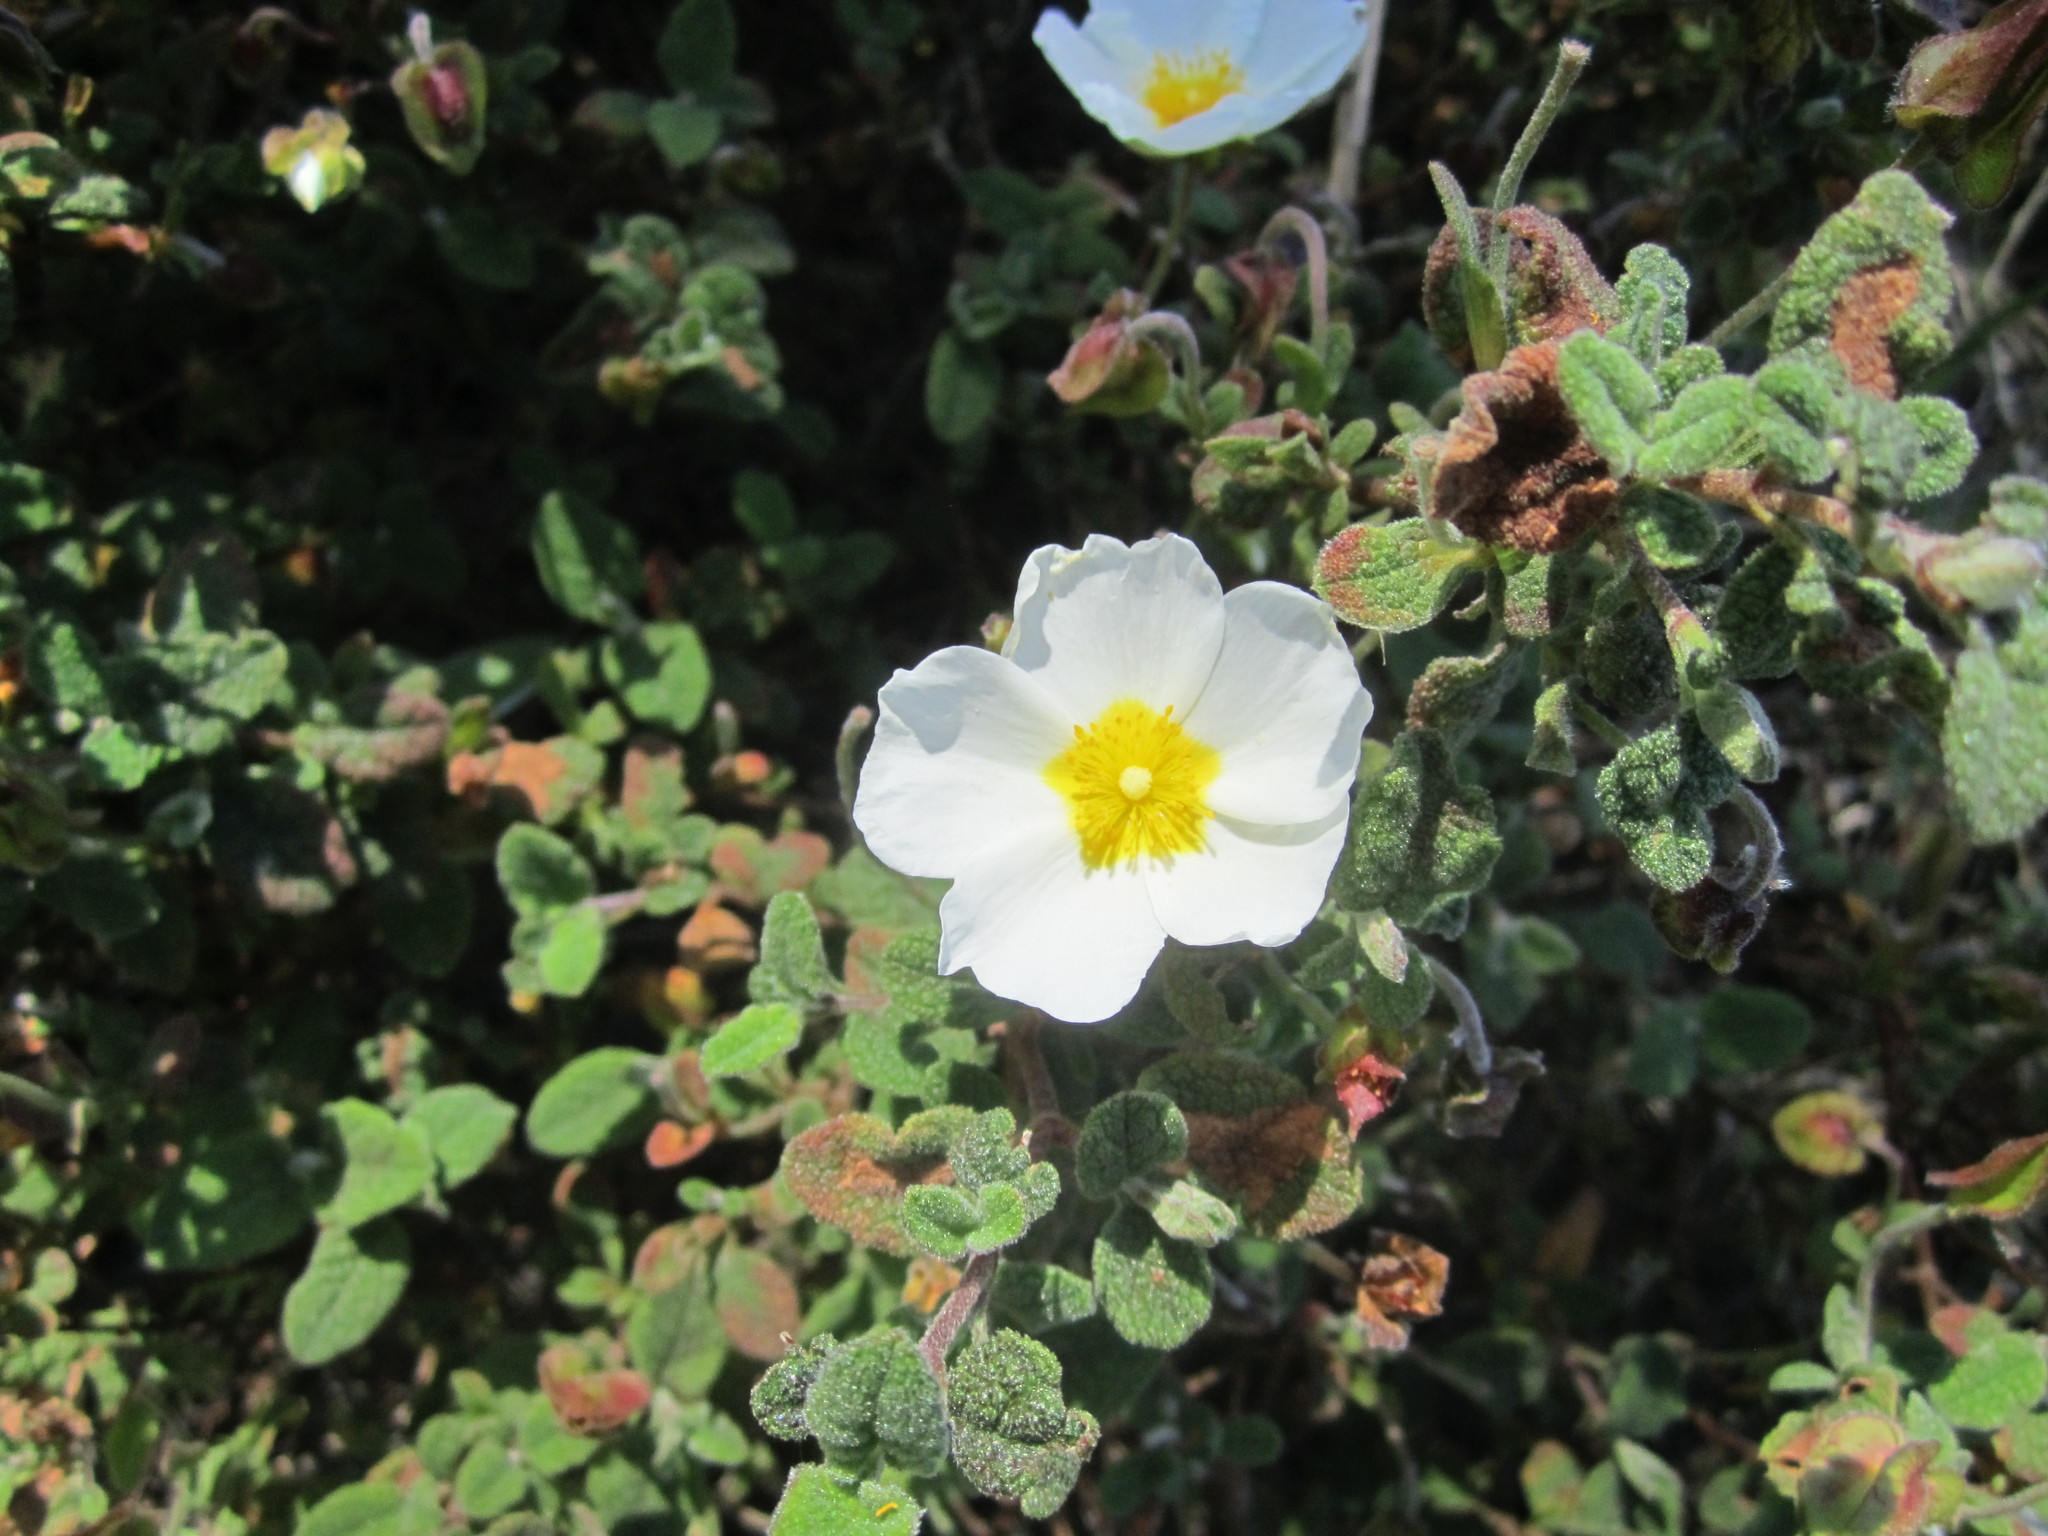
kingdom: Plantae
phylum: Tracheophyta
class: Magnoliopsida
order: Malvales
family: Cistaceae
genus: Cistus
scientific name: Cistus salviifolius
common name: Salvia cistus
